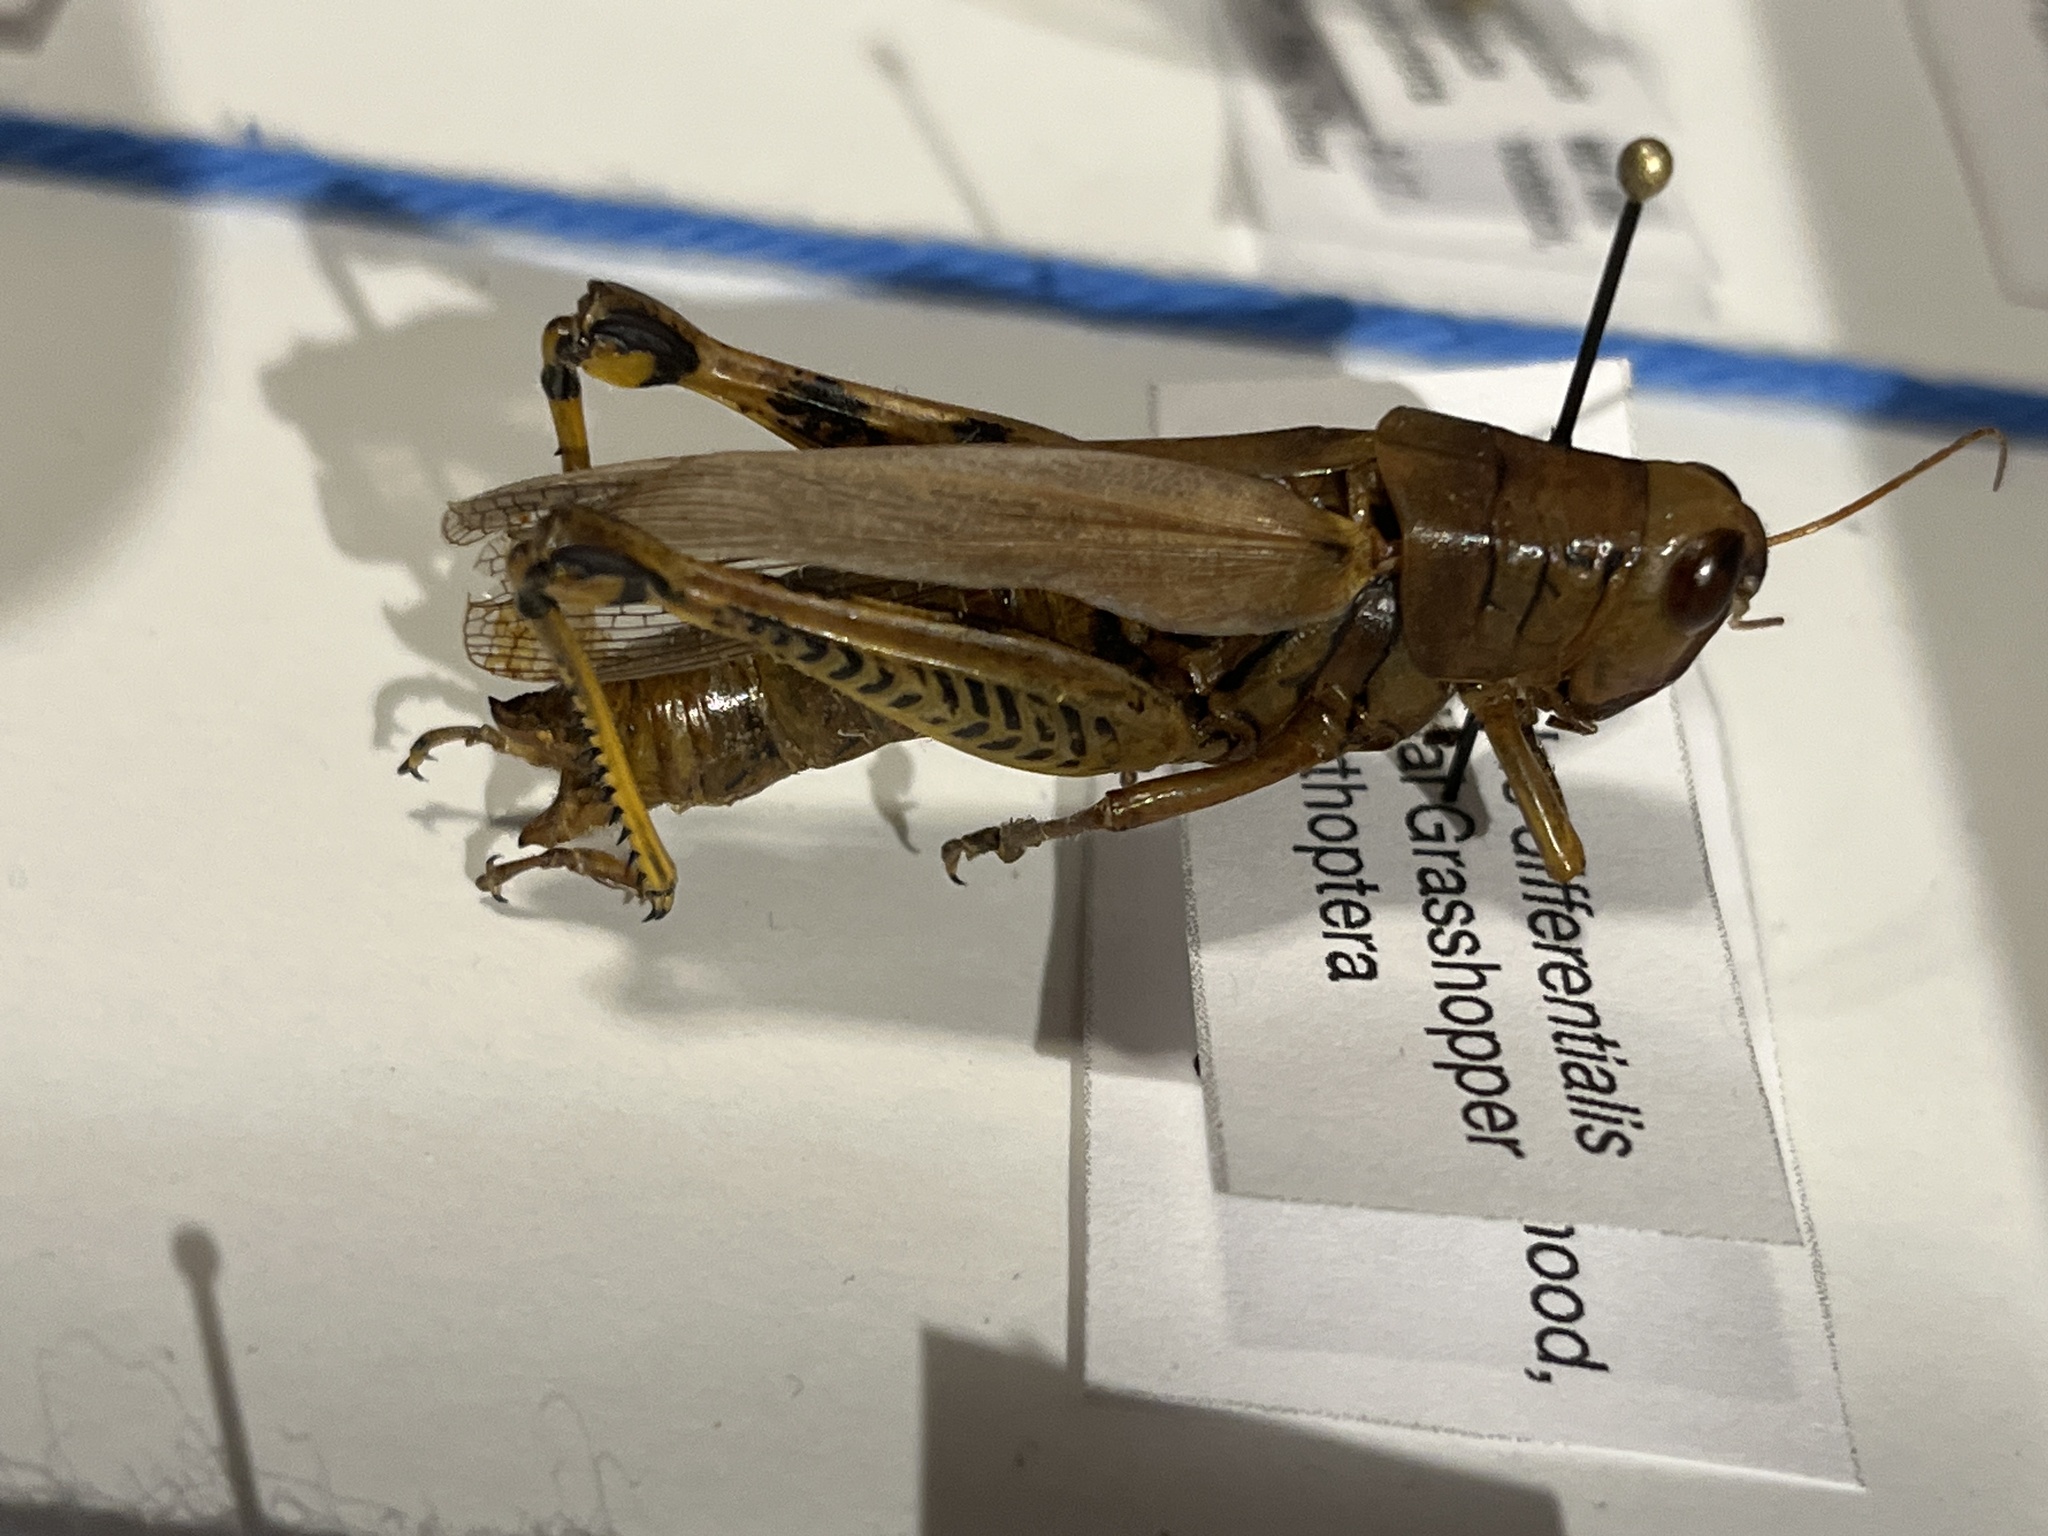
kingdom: Animalia
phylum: Arthropoda
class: Insecta
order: Orthoptera
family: Acrididae
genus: Melanoplus
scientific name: Melanoplus differentialis
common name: Differential grasshopper
